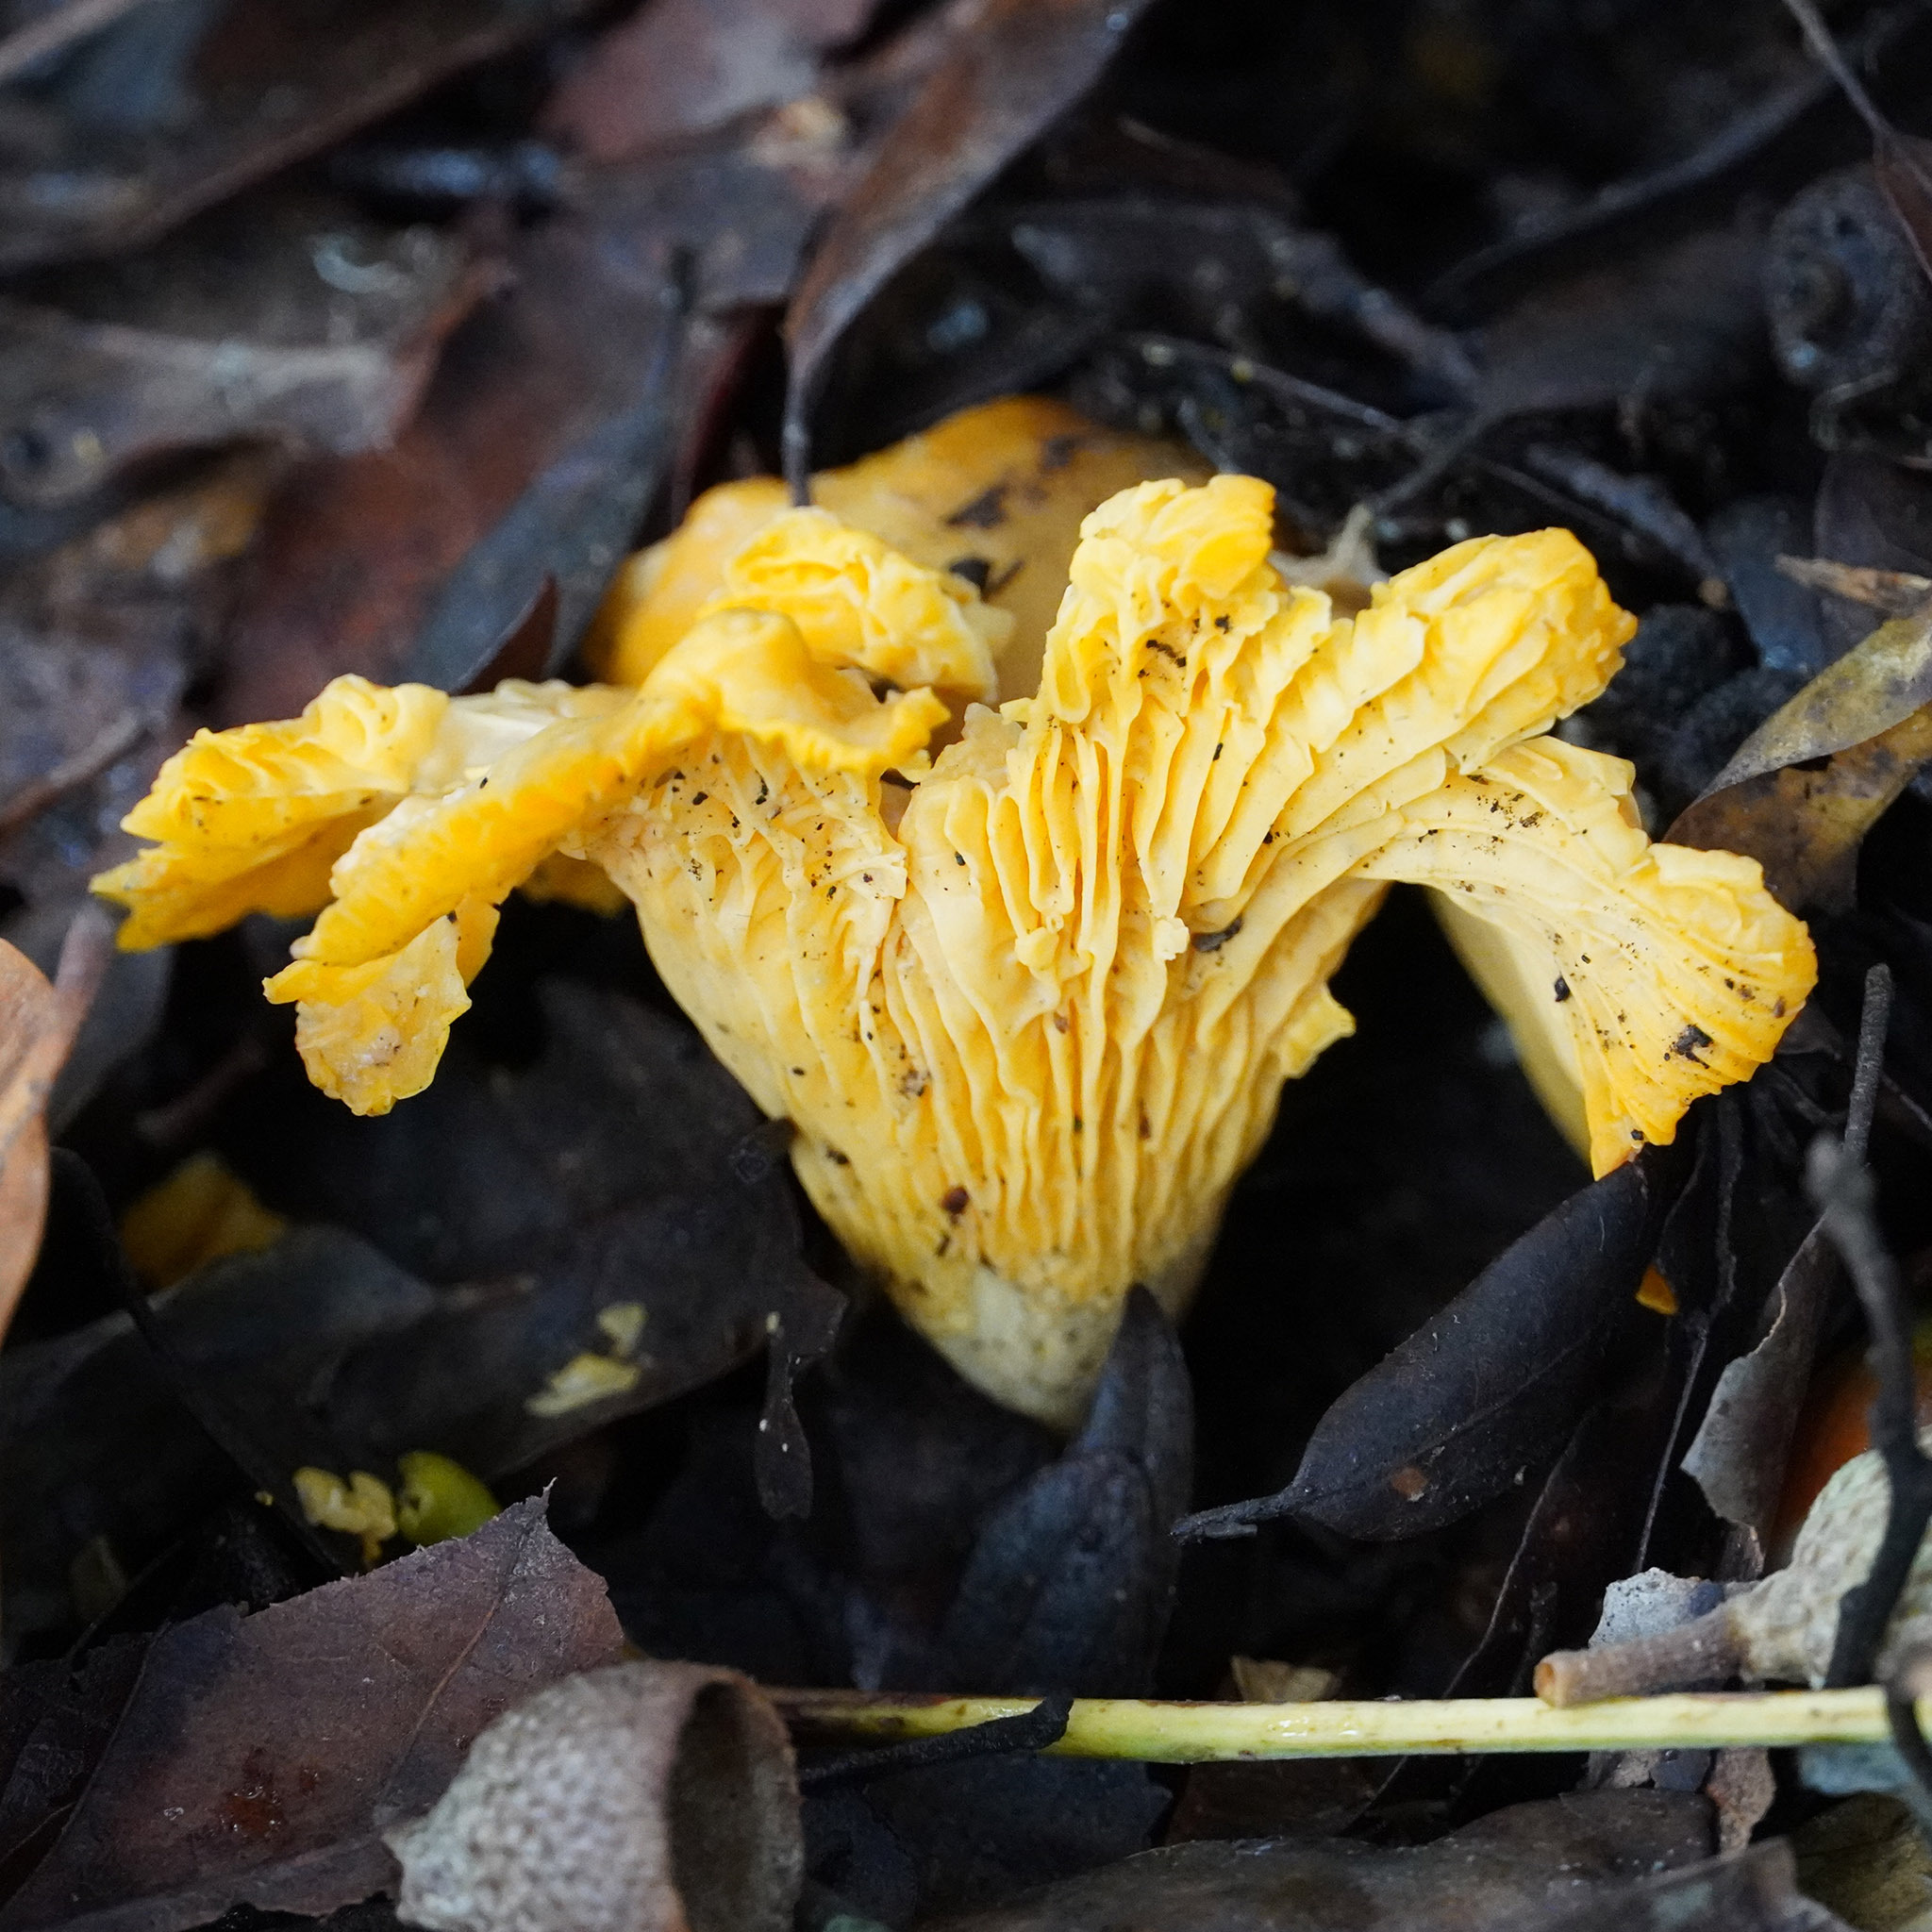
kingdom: Fungi
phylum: Basidiomycota
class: Agaricomycetes
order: Cantharellales
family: Hydnaceae
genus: Cantharellus
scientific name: Cantharellus cibarius
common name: Chanterelle
